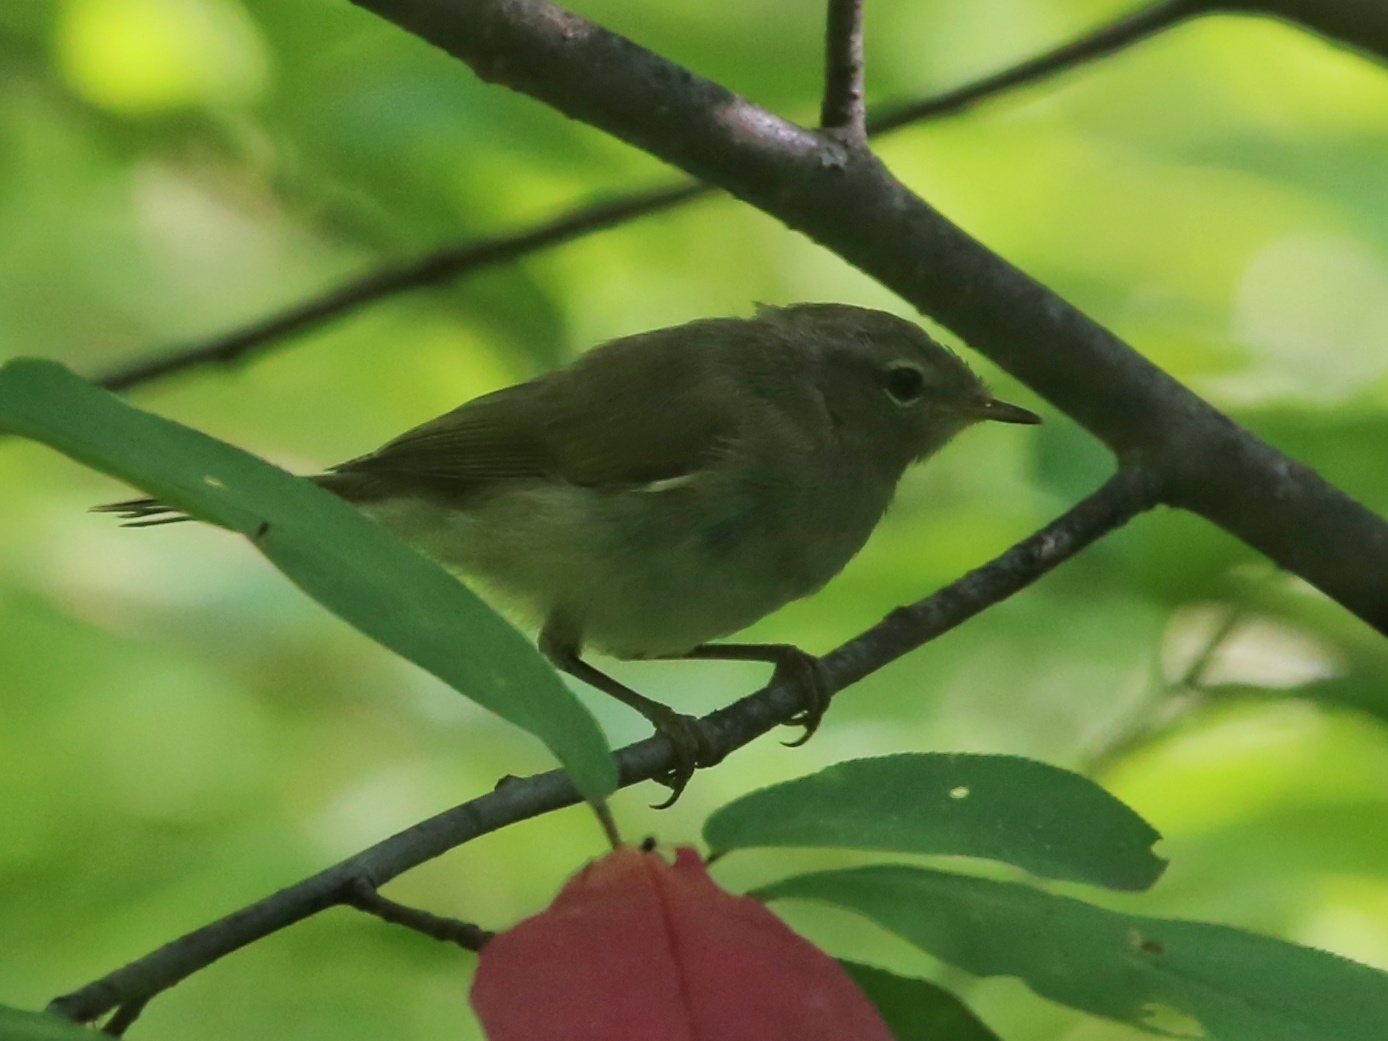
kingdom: Animalia
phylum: Chordata
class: Aves
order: Passeriformes
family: Phylloscopidae
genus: Phylloscopus
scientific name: Phylloscopus collybita
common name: Common chiffchaff
